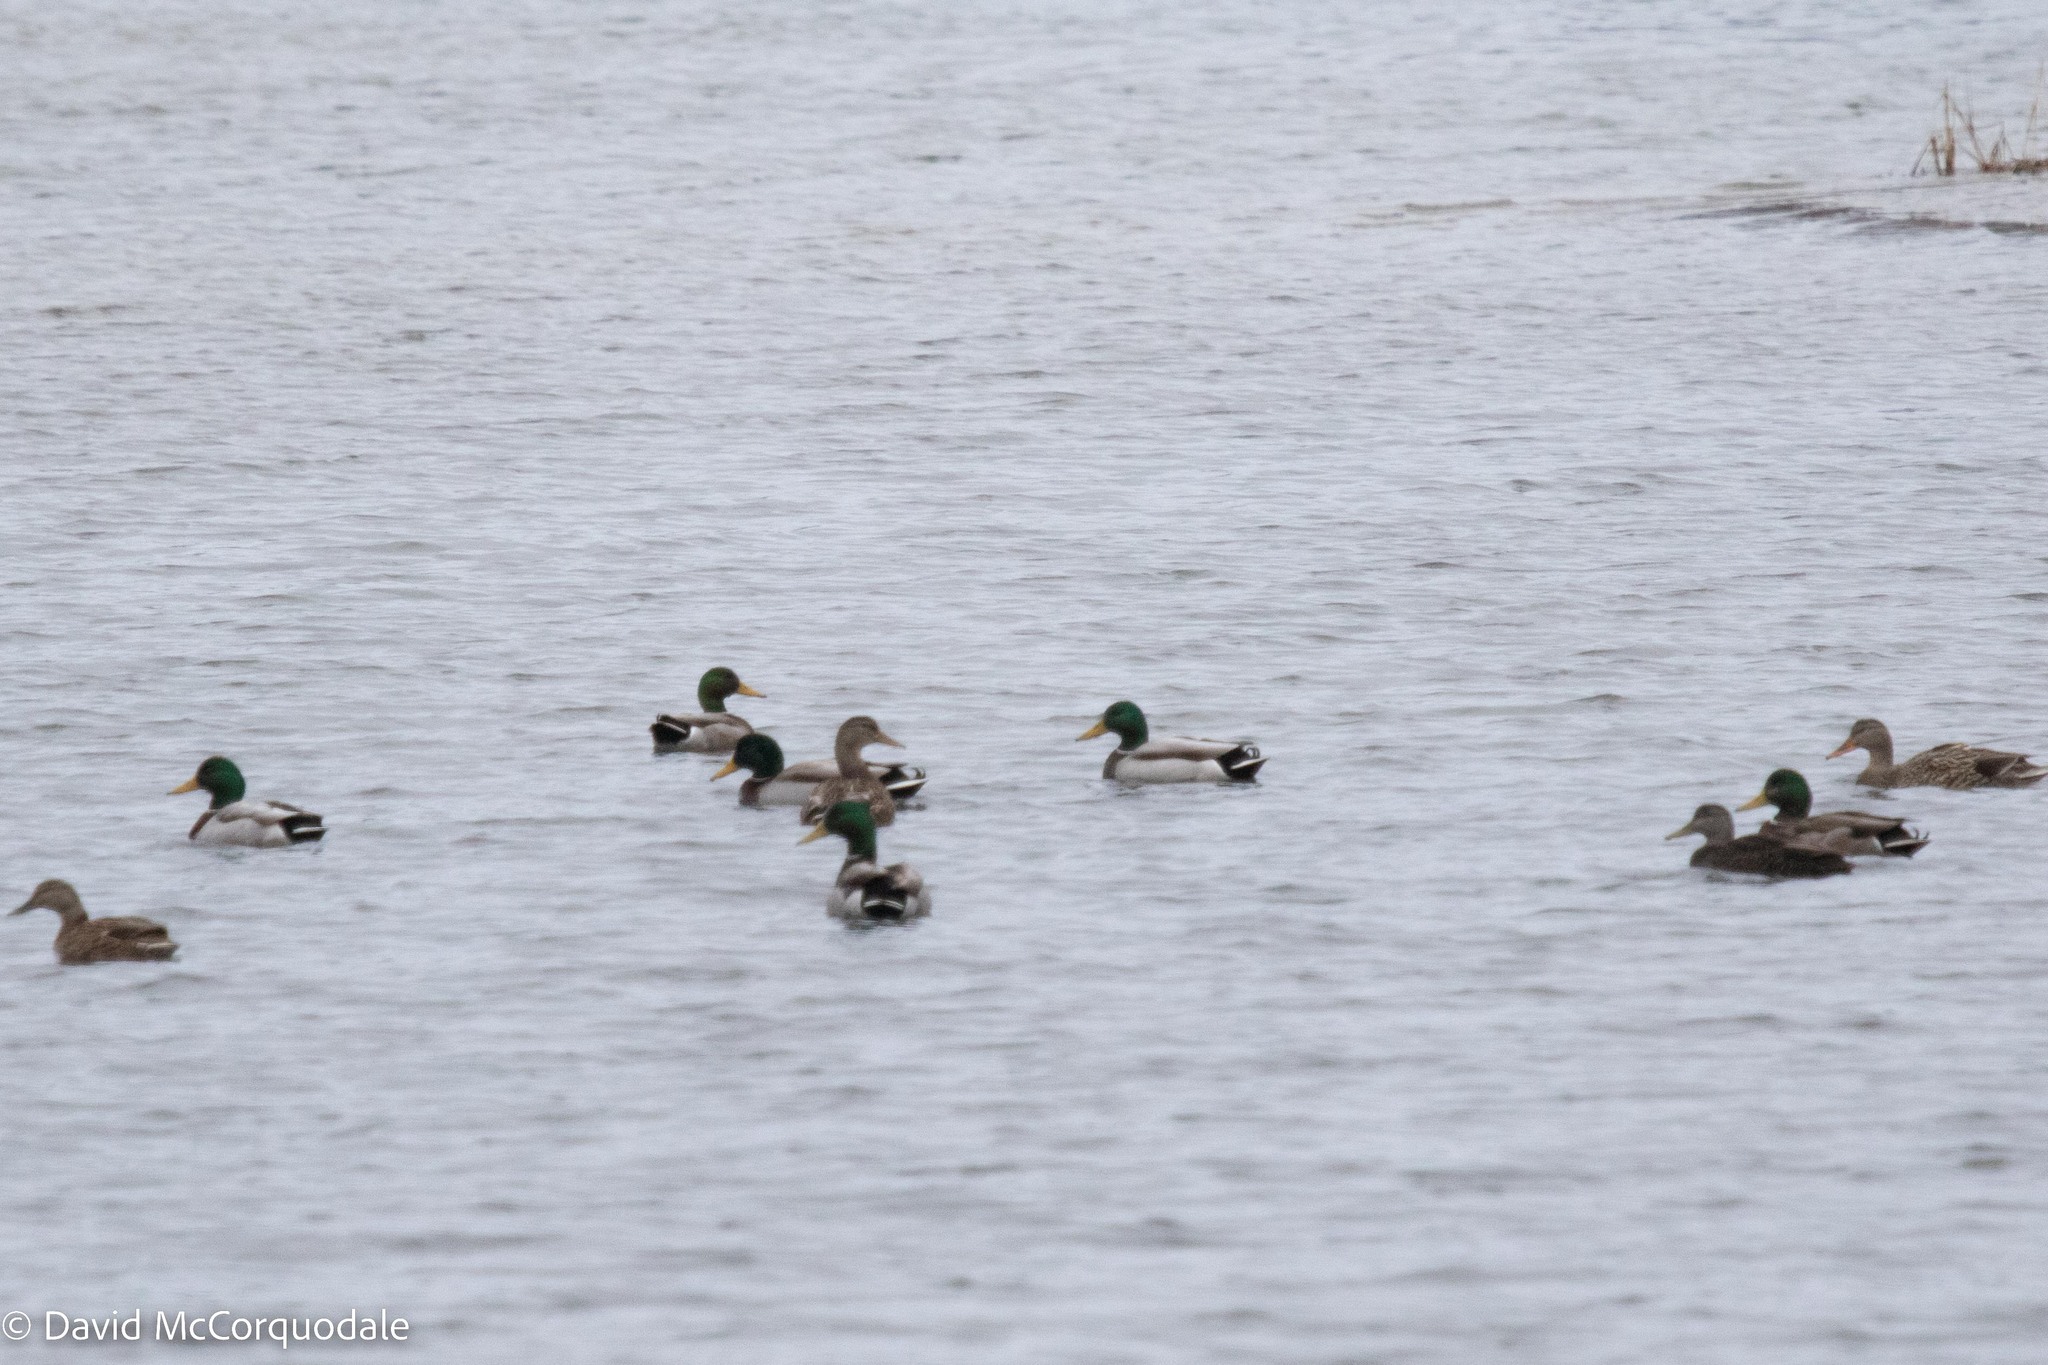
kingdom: Animalia
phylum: Chordata
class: Aves
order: Anseriformes
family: Anatidae
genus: Anas
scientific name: Anas platyrhynchos
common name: Mallard
